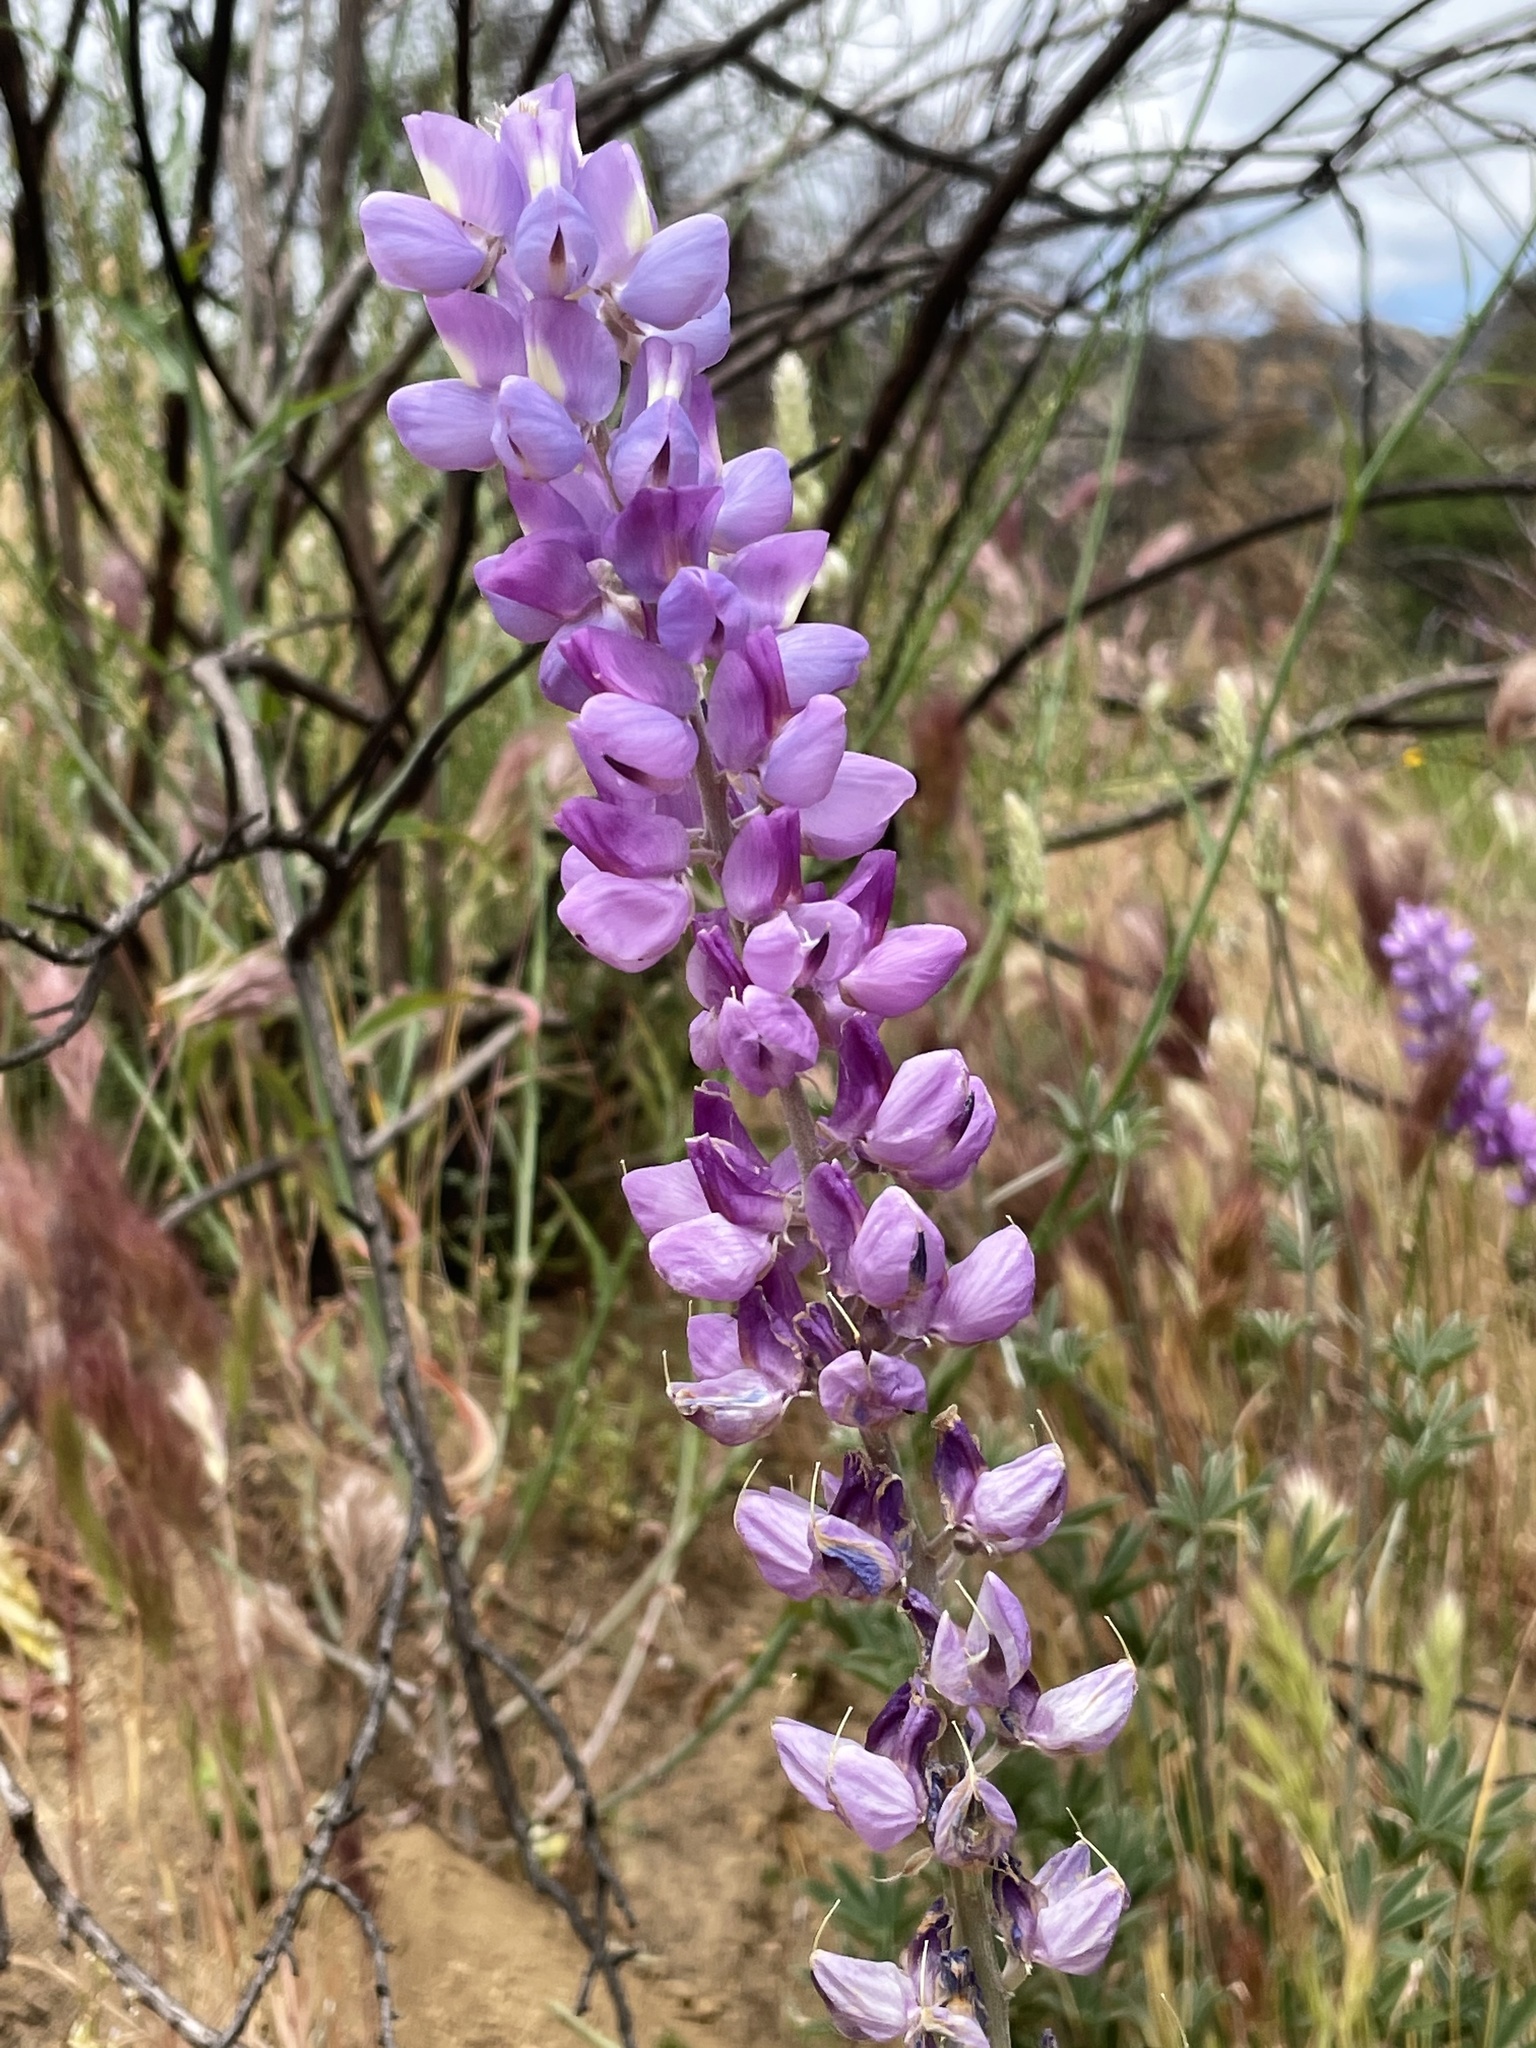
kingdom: Plantae
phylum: Tracheophyta
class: Magnoliopsida
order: Fabales
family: Fabaceae
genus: Lupinus
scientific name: Lupinus excubitus
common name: Grape soda lupine
